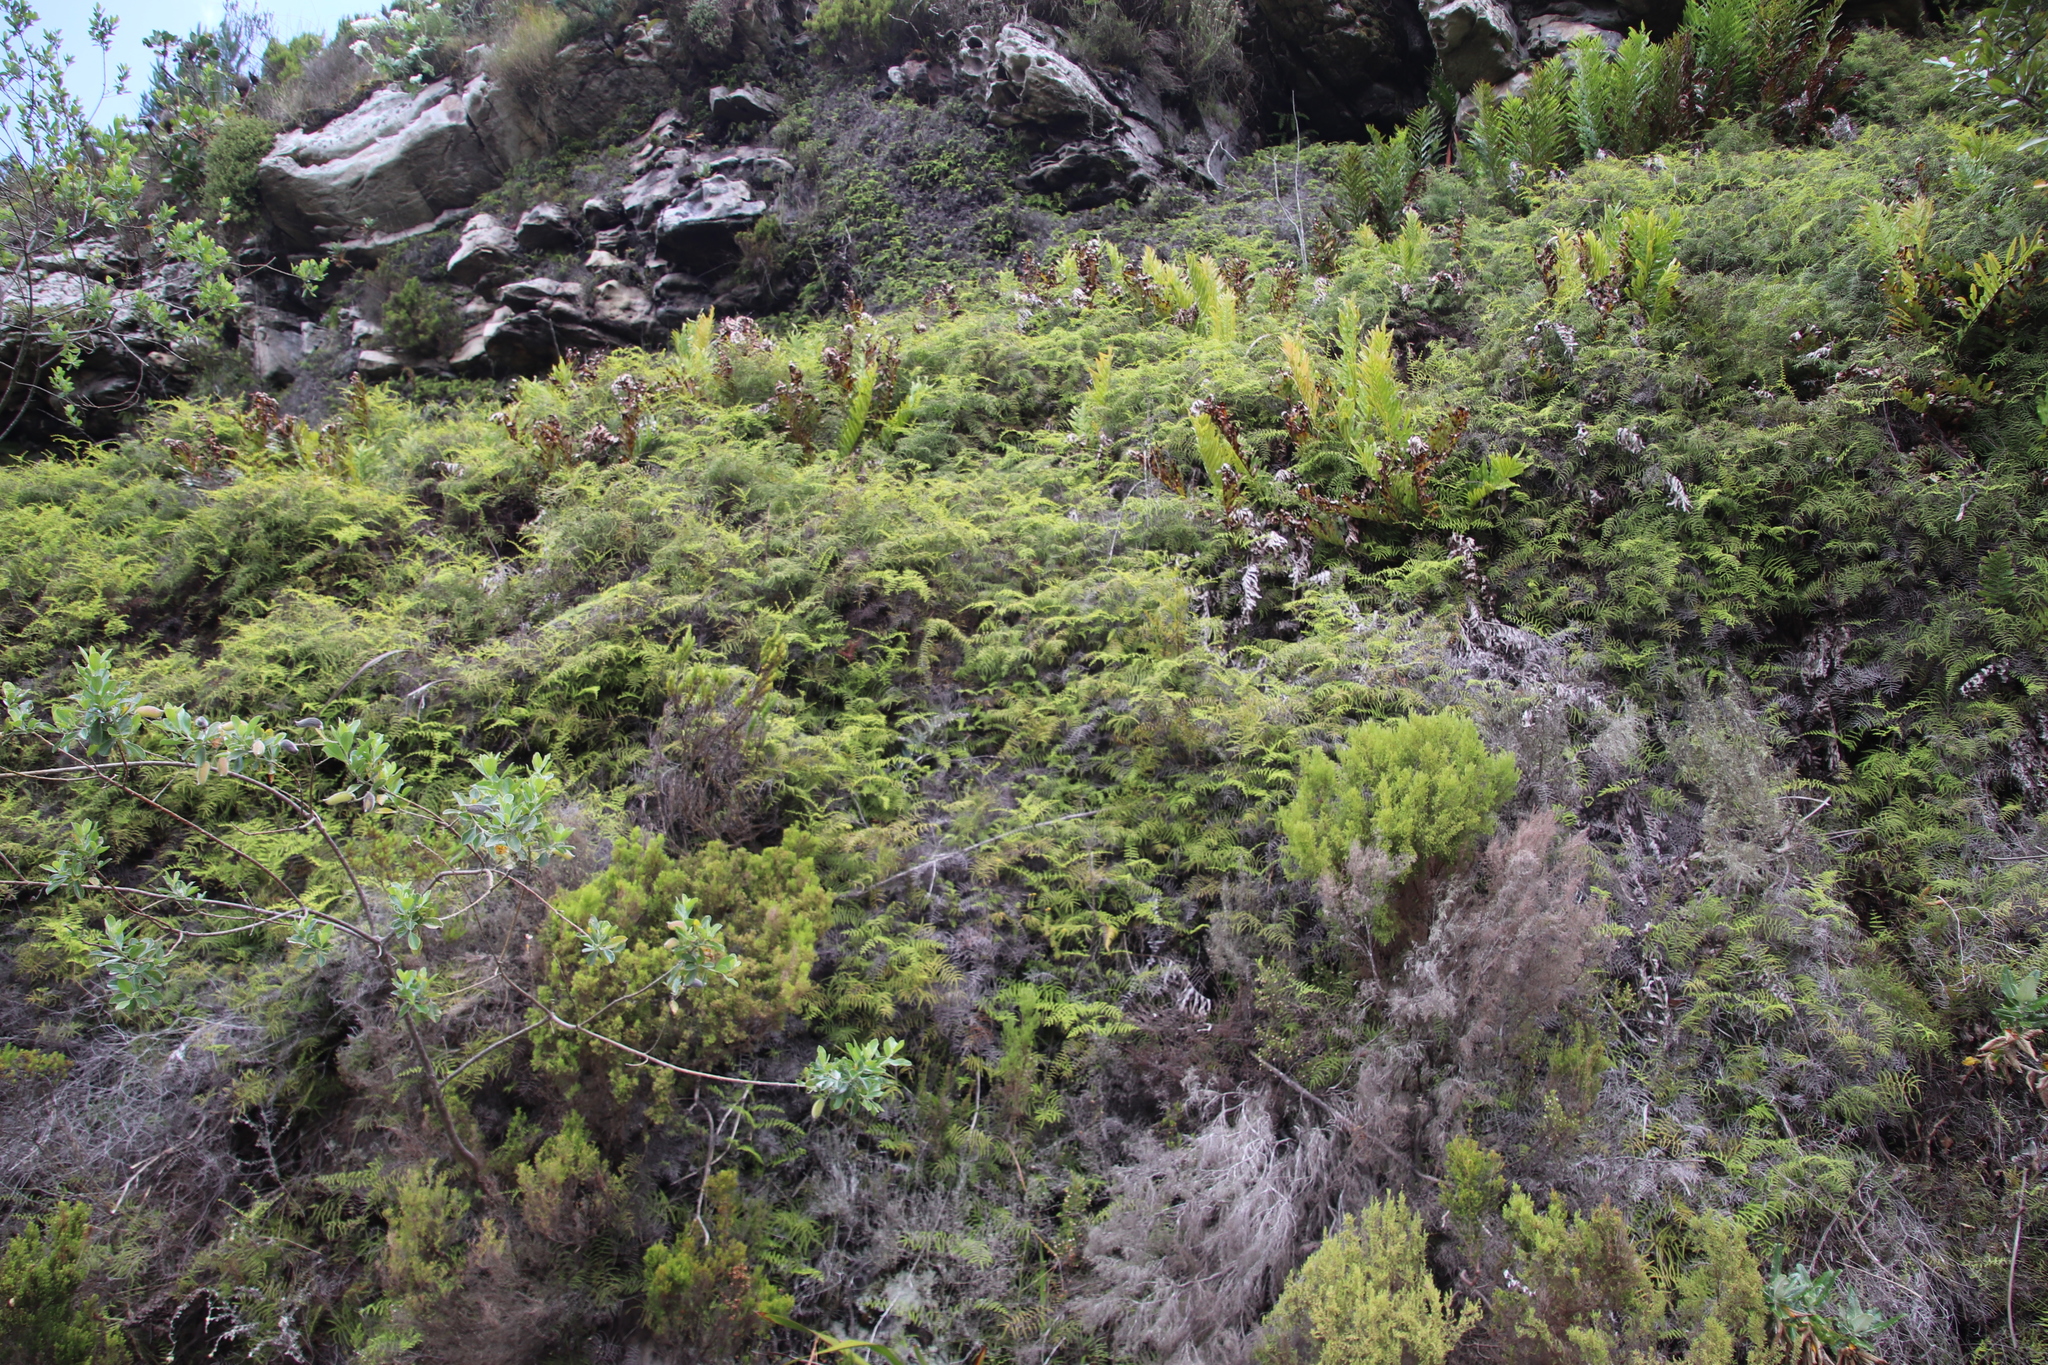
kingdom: Plantae
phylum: Tracheophyta
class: Polypodiopsida
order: Gleicheniales
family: Gleicheniaceae
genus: Gleichenia
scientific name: Gleichenia polypodioides
